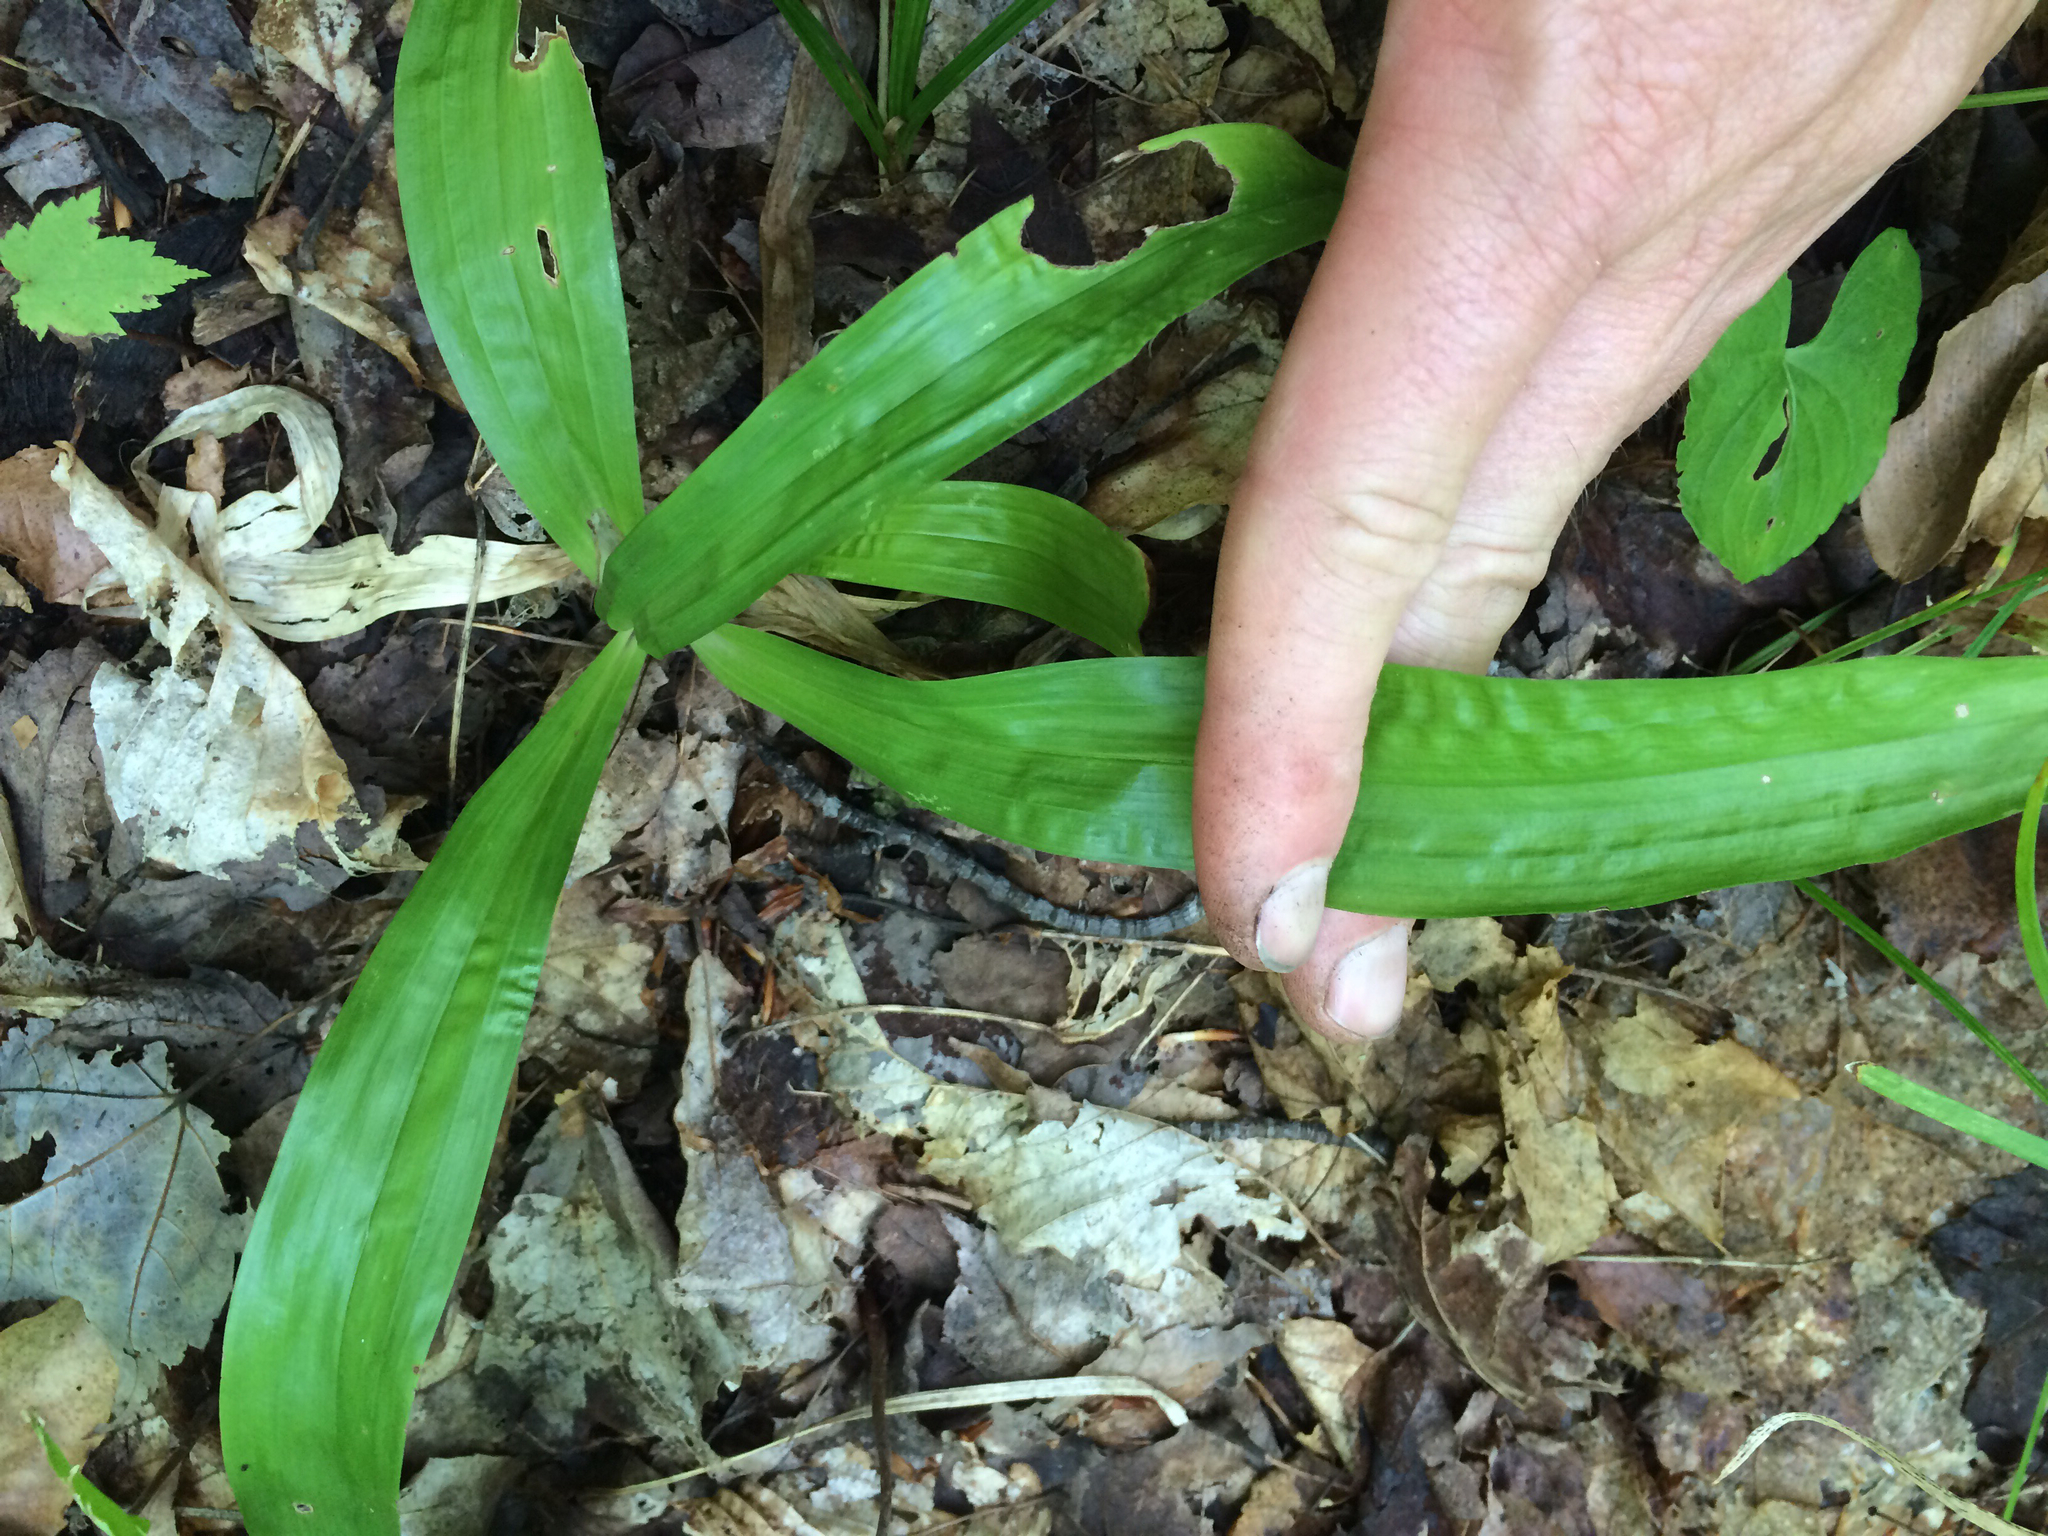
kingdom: Plantae
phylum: Tracheophyta
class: Liliopsida
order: Poales
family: Cyperaceae
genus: Carex
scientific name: Carex plantaginea
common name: Plantain-leaved sedge
